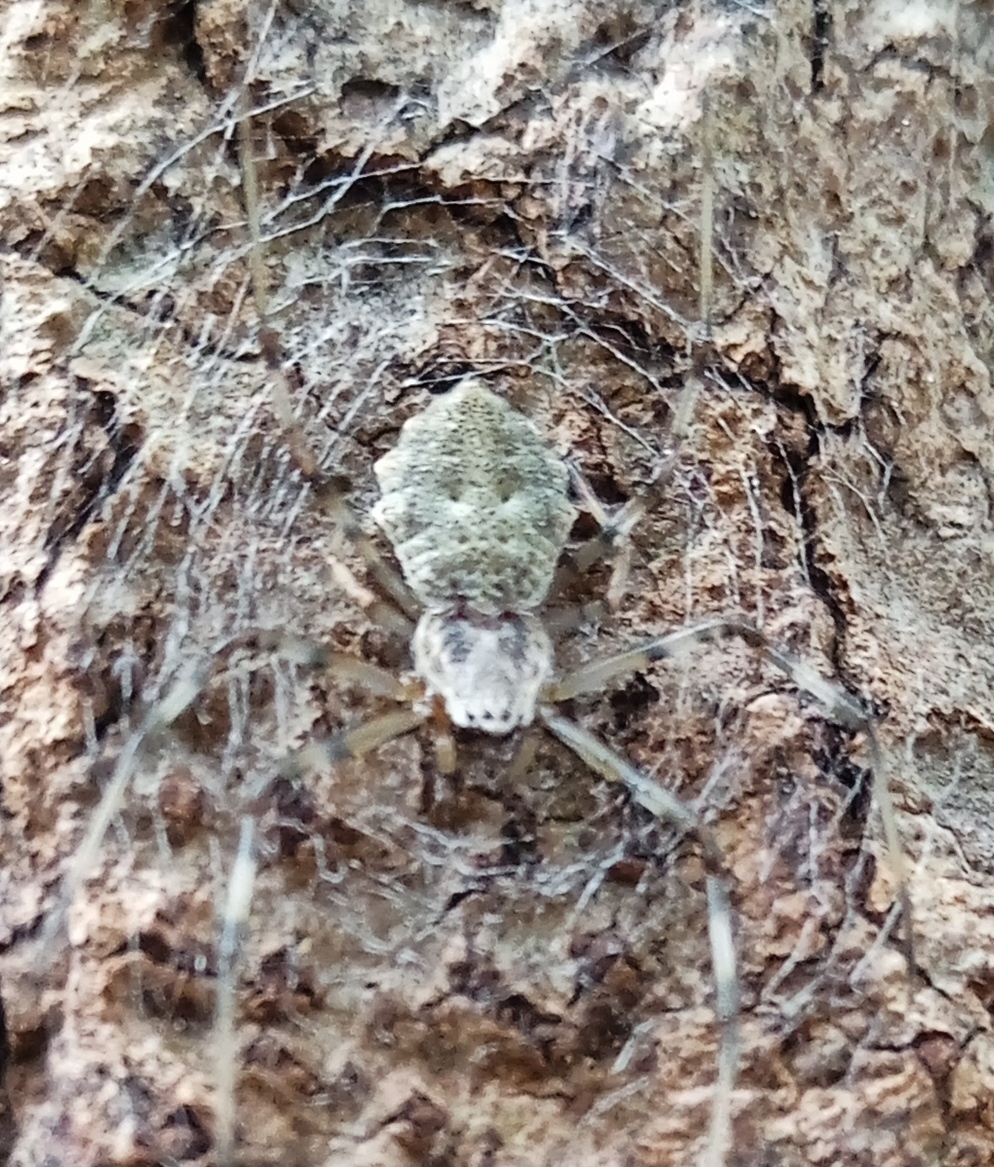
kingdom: Animalia
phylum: Arthropoda
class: Arachnida
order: Araneae
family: Araneidae
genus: Herennia
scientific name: Herennia multipuncta
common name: Spotted coin spider
